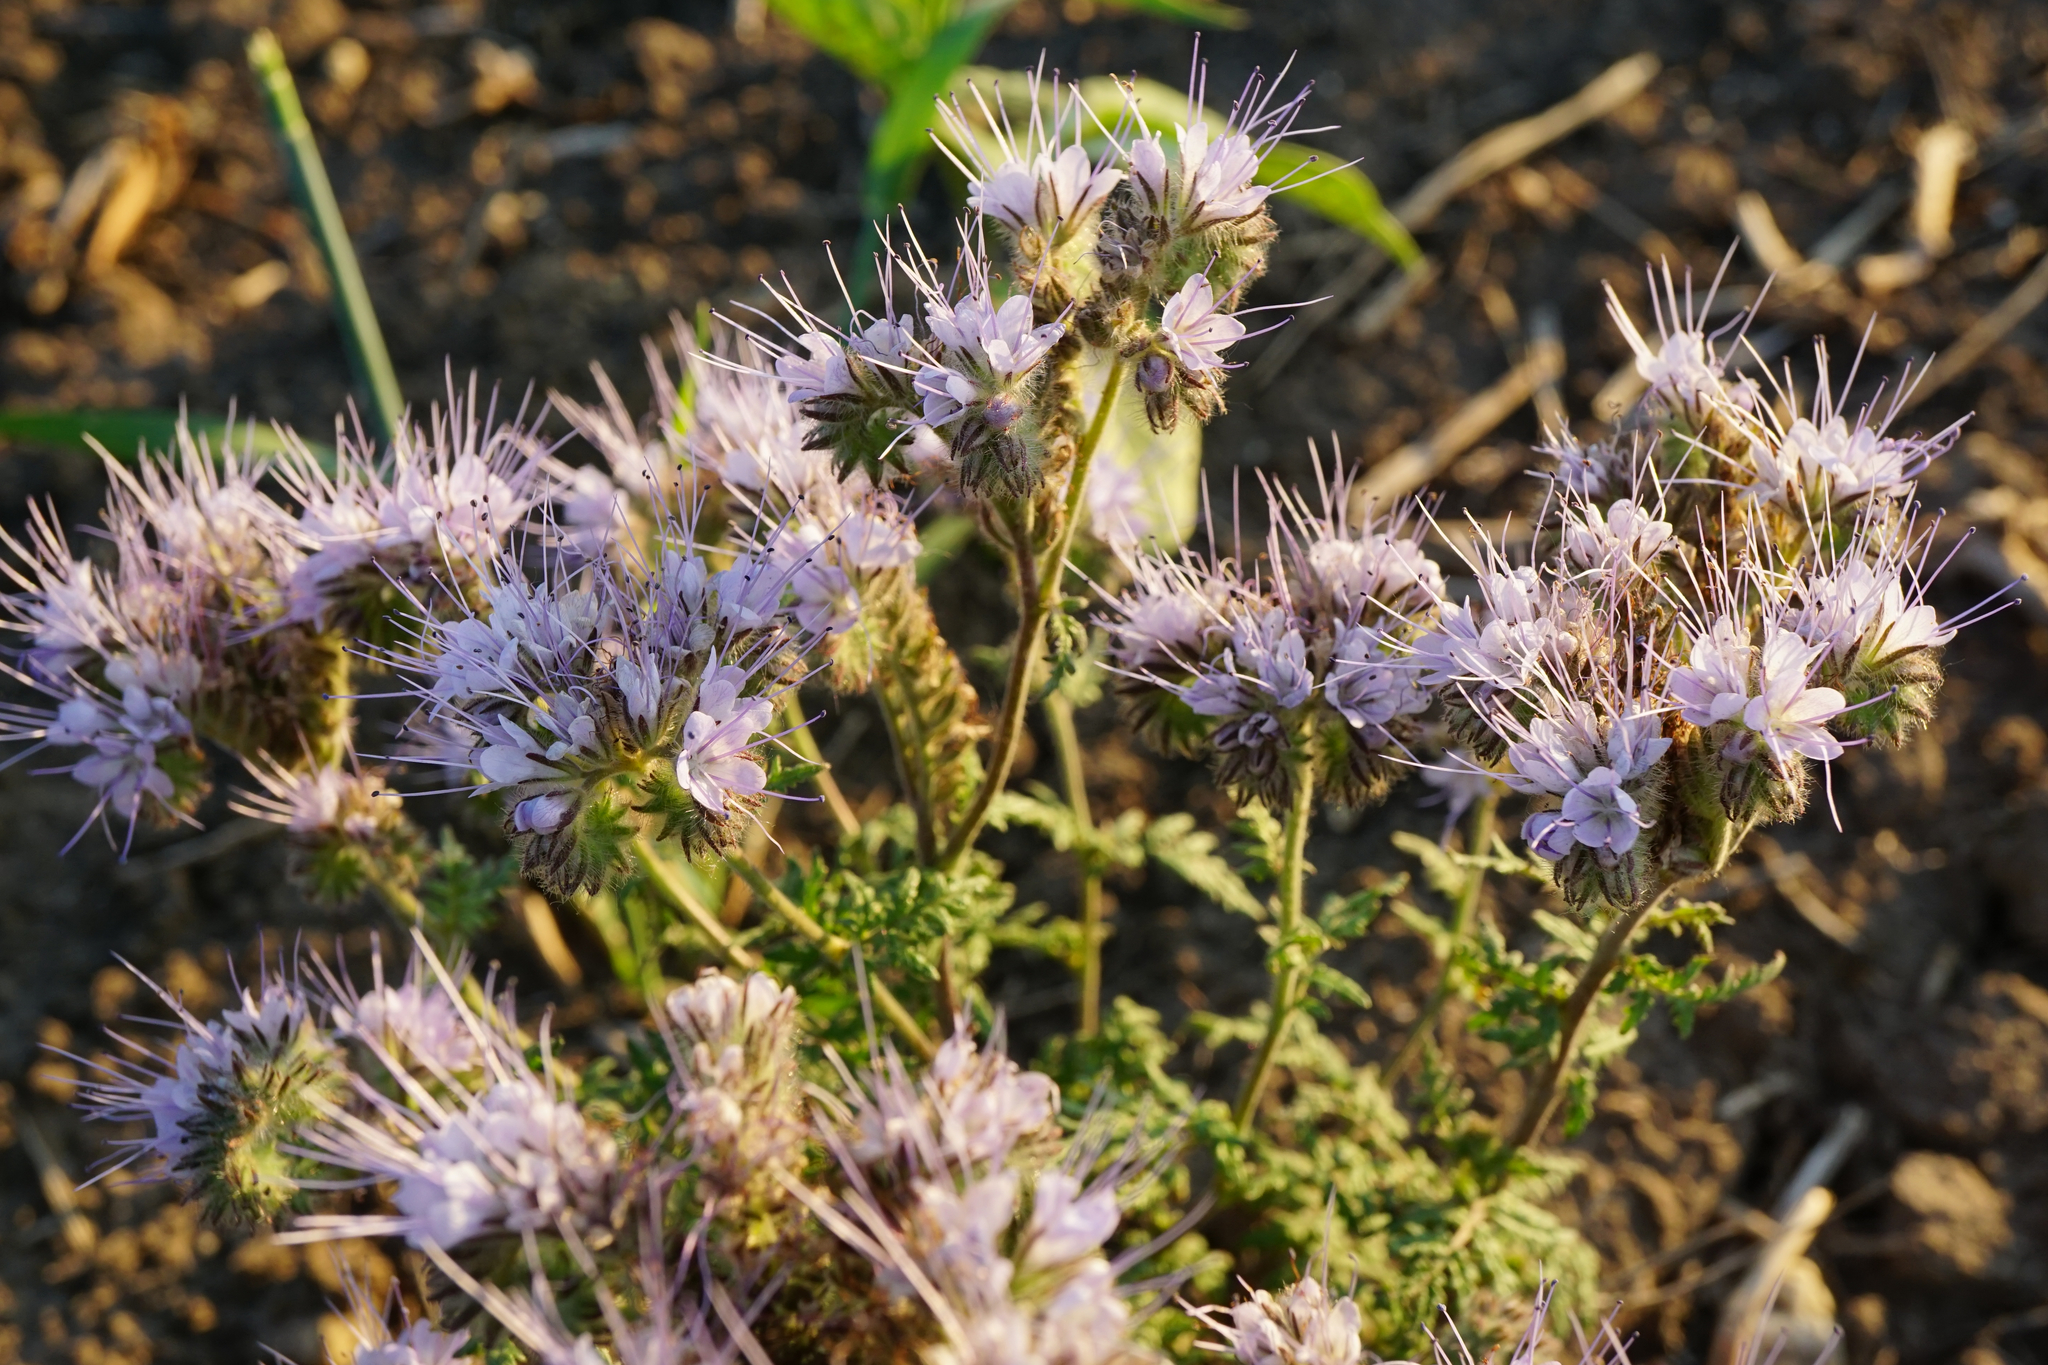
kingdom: Plantae
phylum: Tracheophyta
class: Magnoliopsida
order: Boraginales
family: Hydrophyllaceae
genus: Phacelia
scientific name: Phacelia tanacetifolia
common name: Phacelia
